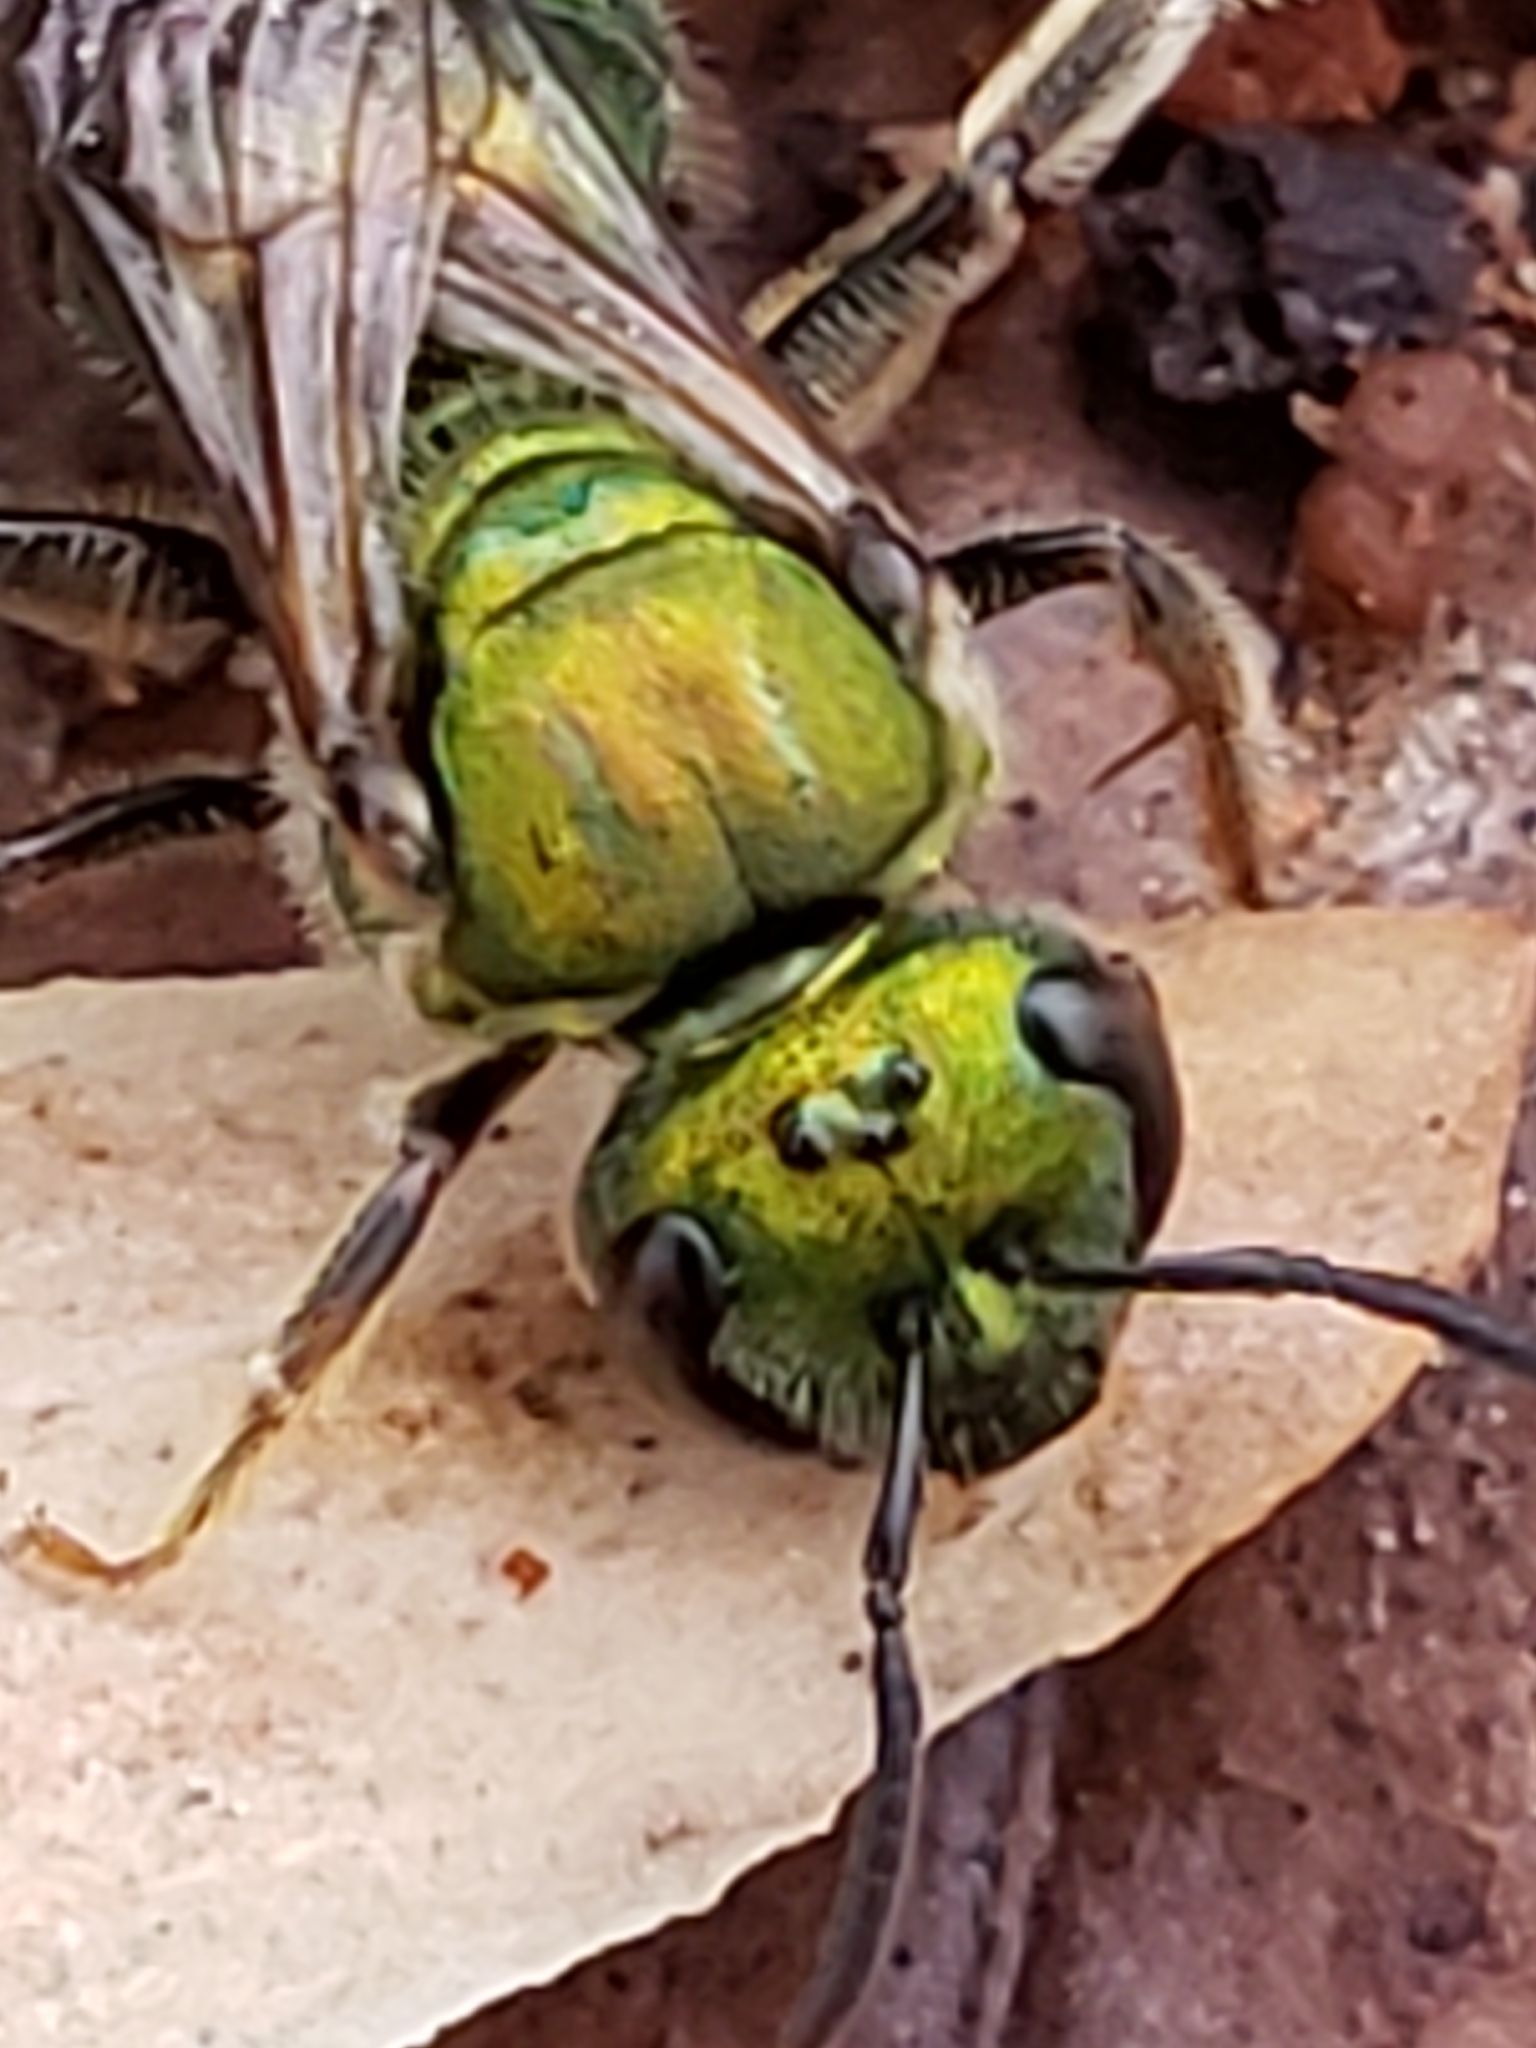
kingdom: Animalia
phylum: Arthropoda
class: Insecta
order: Hymenoptera
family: Halictidae
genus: Augochlora
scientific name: Augochlora pura
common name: Pure green sweat bee
